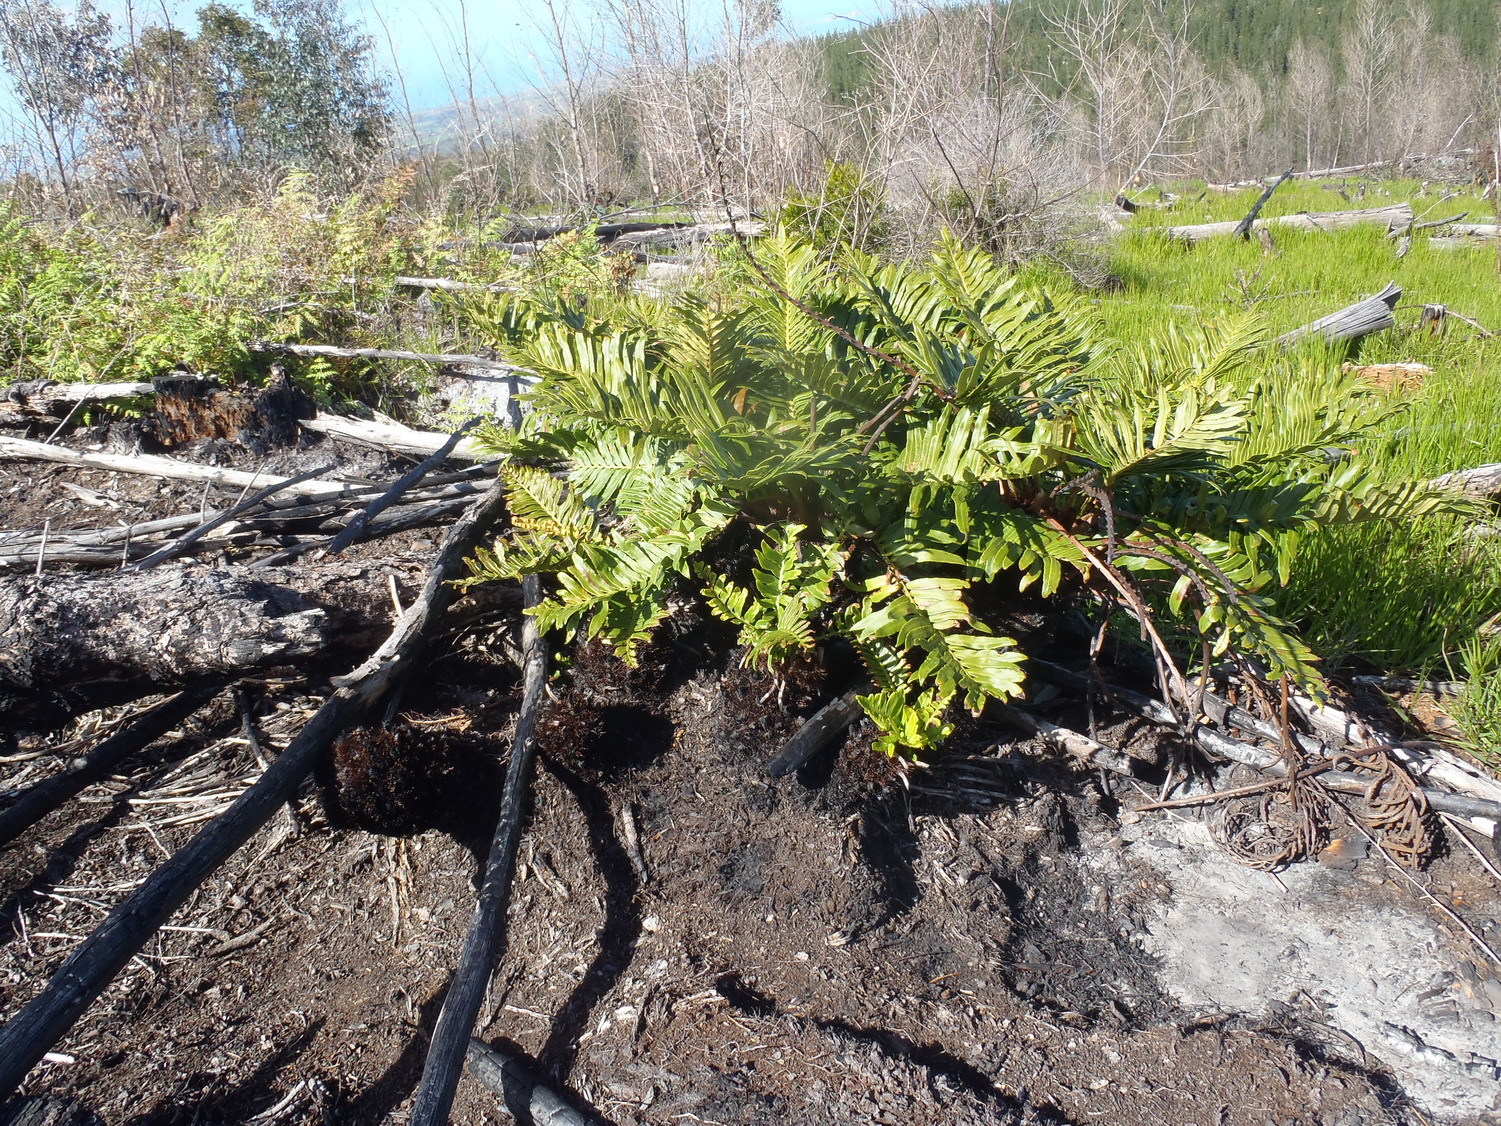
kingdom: Plantae
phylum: Tracheophyta
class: Polypodiopsida
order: Polypodiales
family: Blechnaceae
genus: Lomariocycas
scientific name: Lomariocycas tabularis
